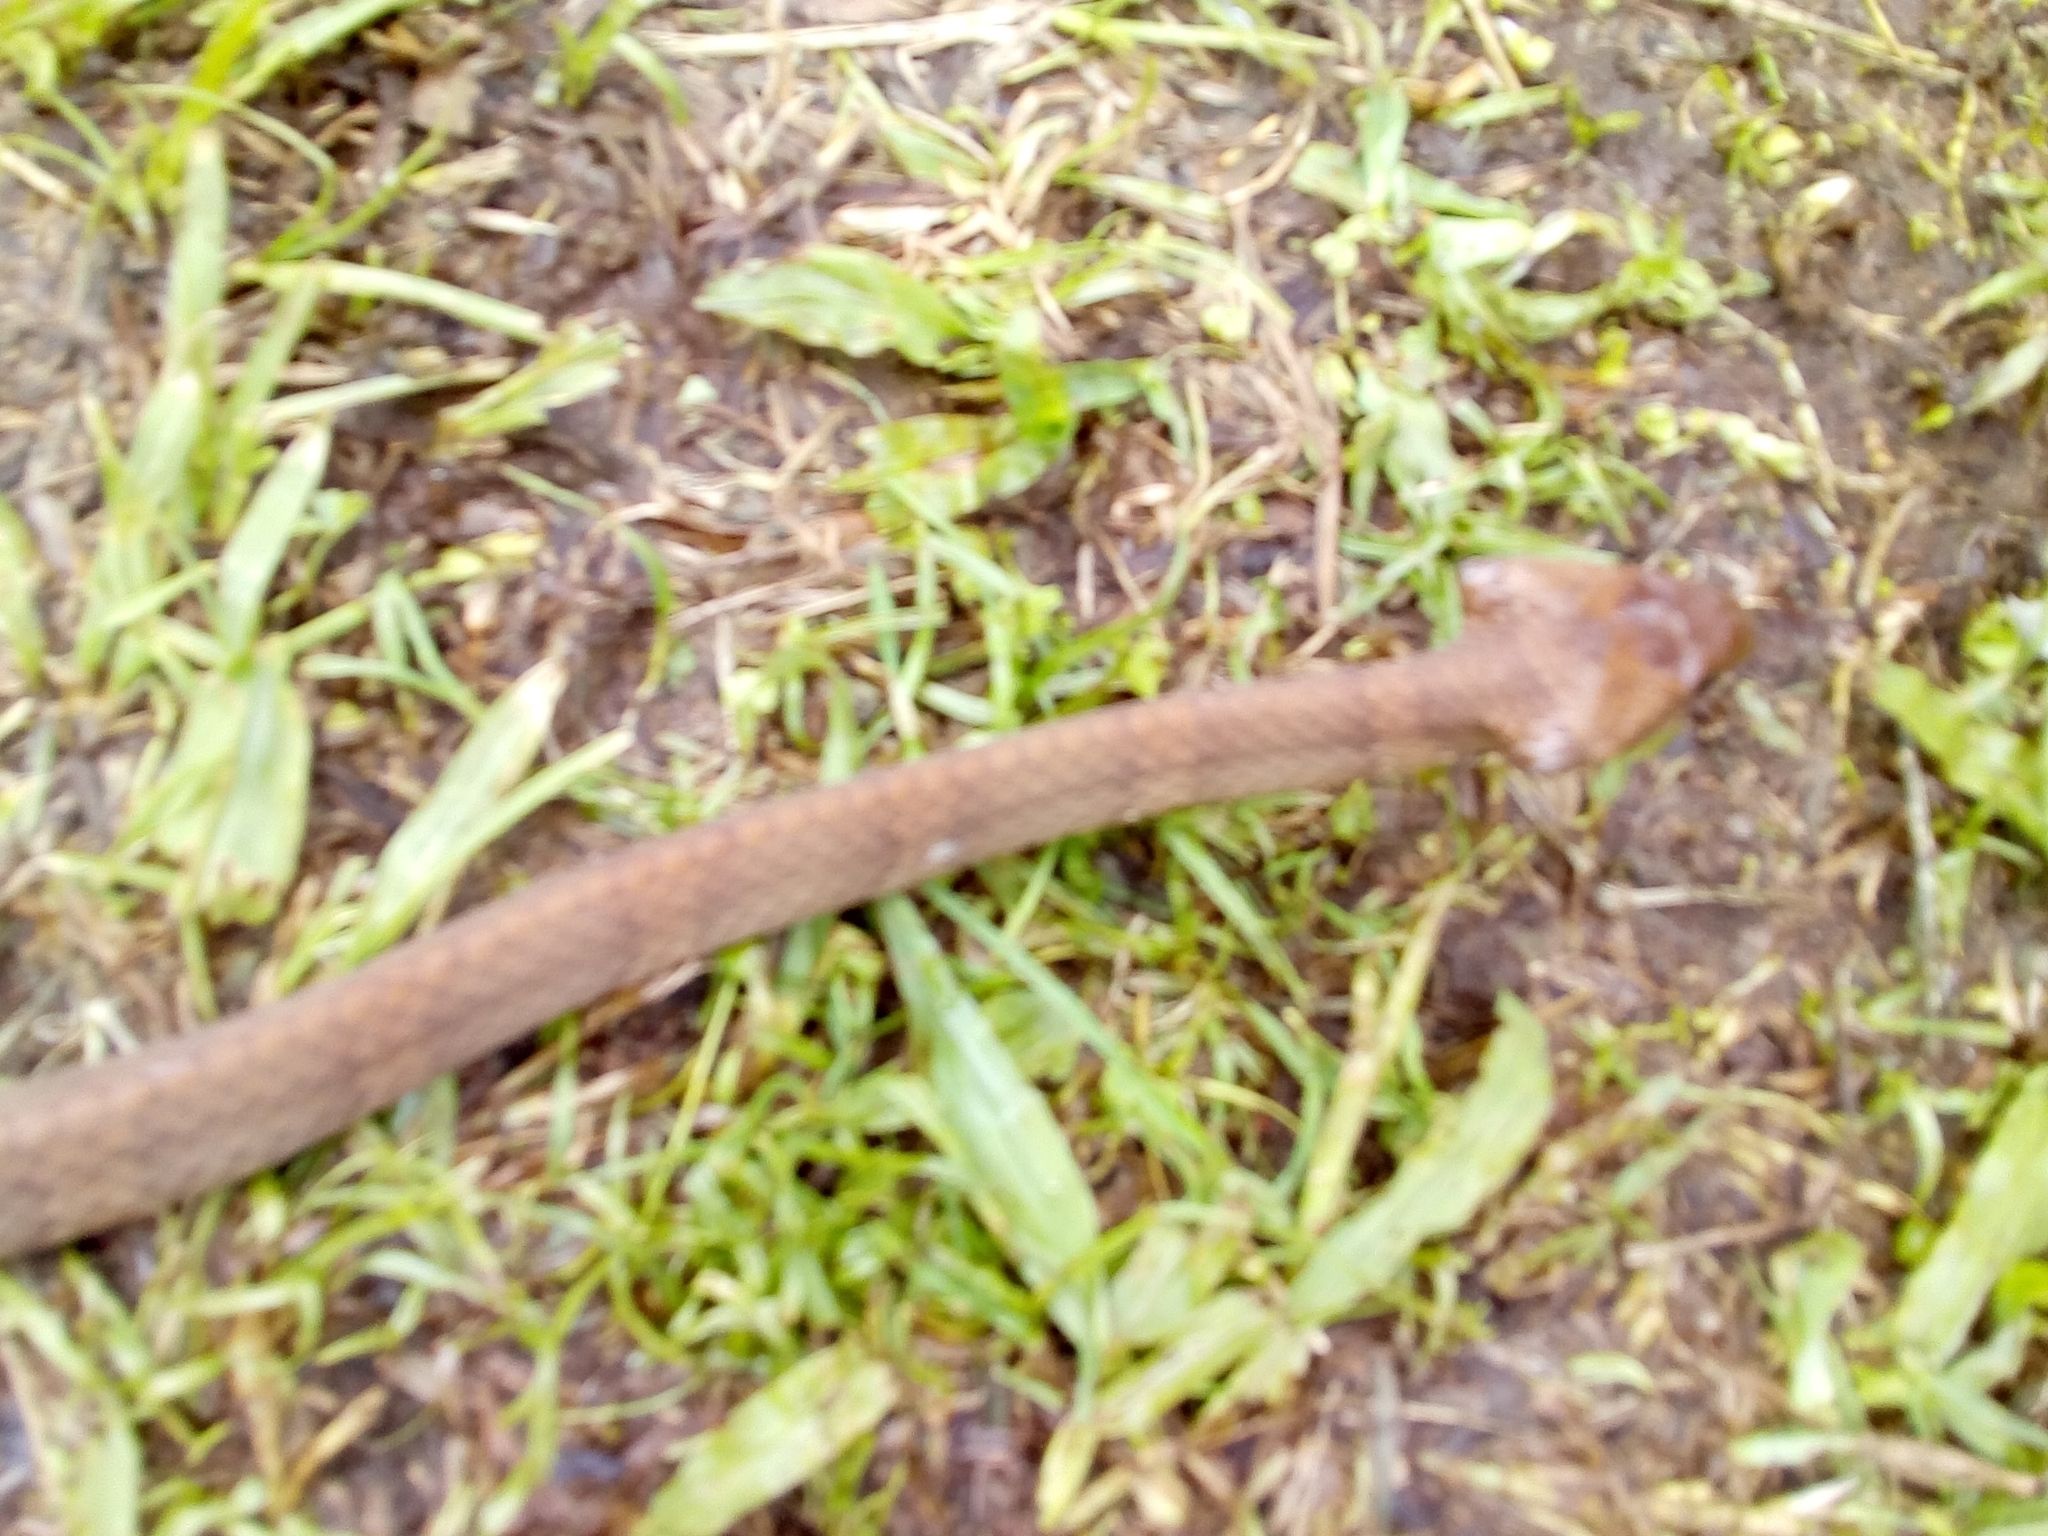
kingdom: Animalia
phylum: Chordata
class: Squamata
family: Colubridae
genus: Dipsas
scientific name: Dipsas sanctijoannis
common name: Tropical snail-eater
